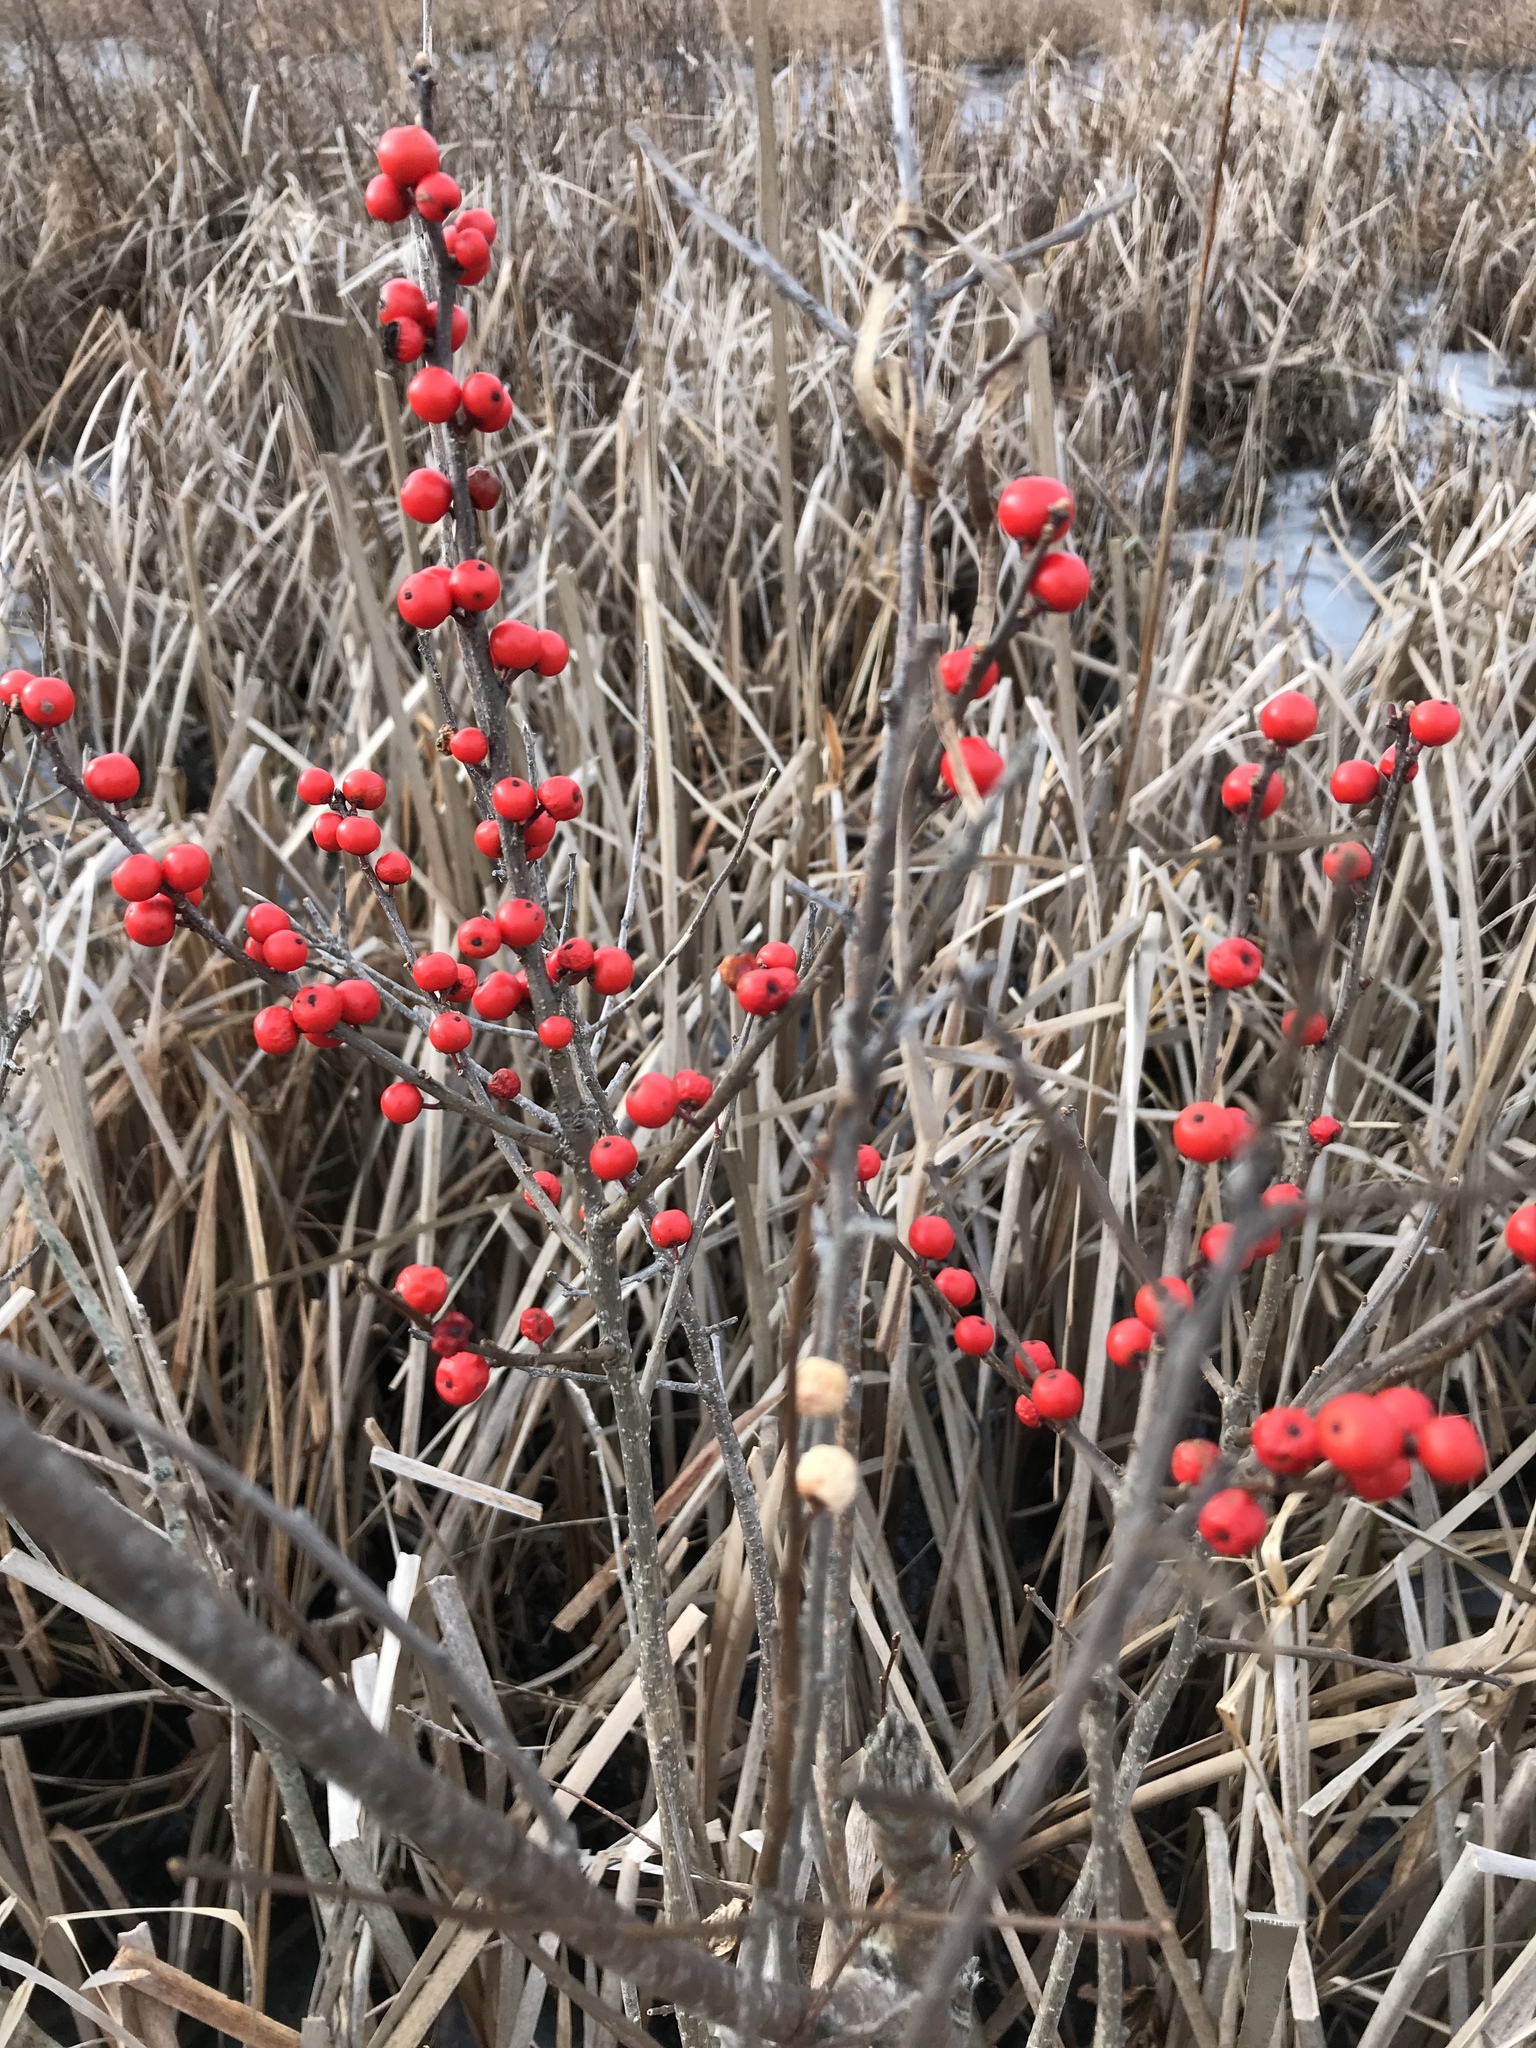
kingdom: Plantae
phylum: Tracheophyta
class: Magnoliopsida
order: Aquifoliales
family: Aquifoliaceae
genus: Ilex
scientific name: Ilex verticillata
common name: Virginia winterberry
